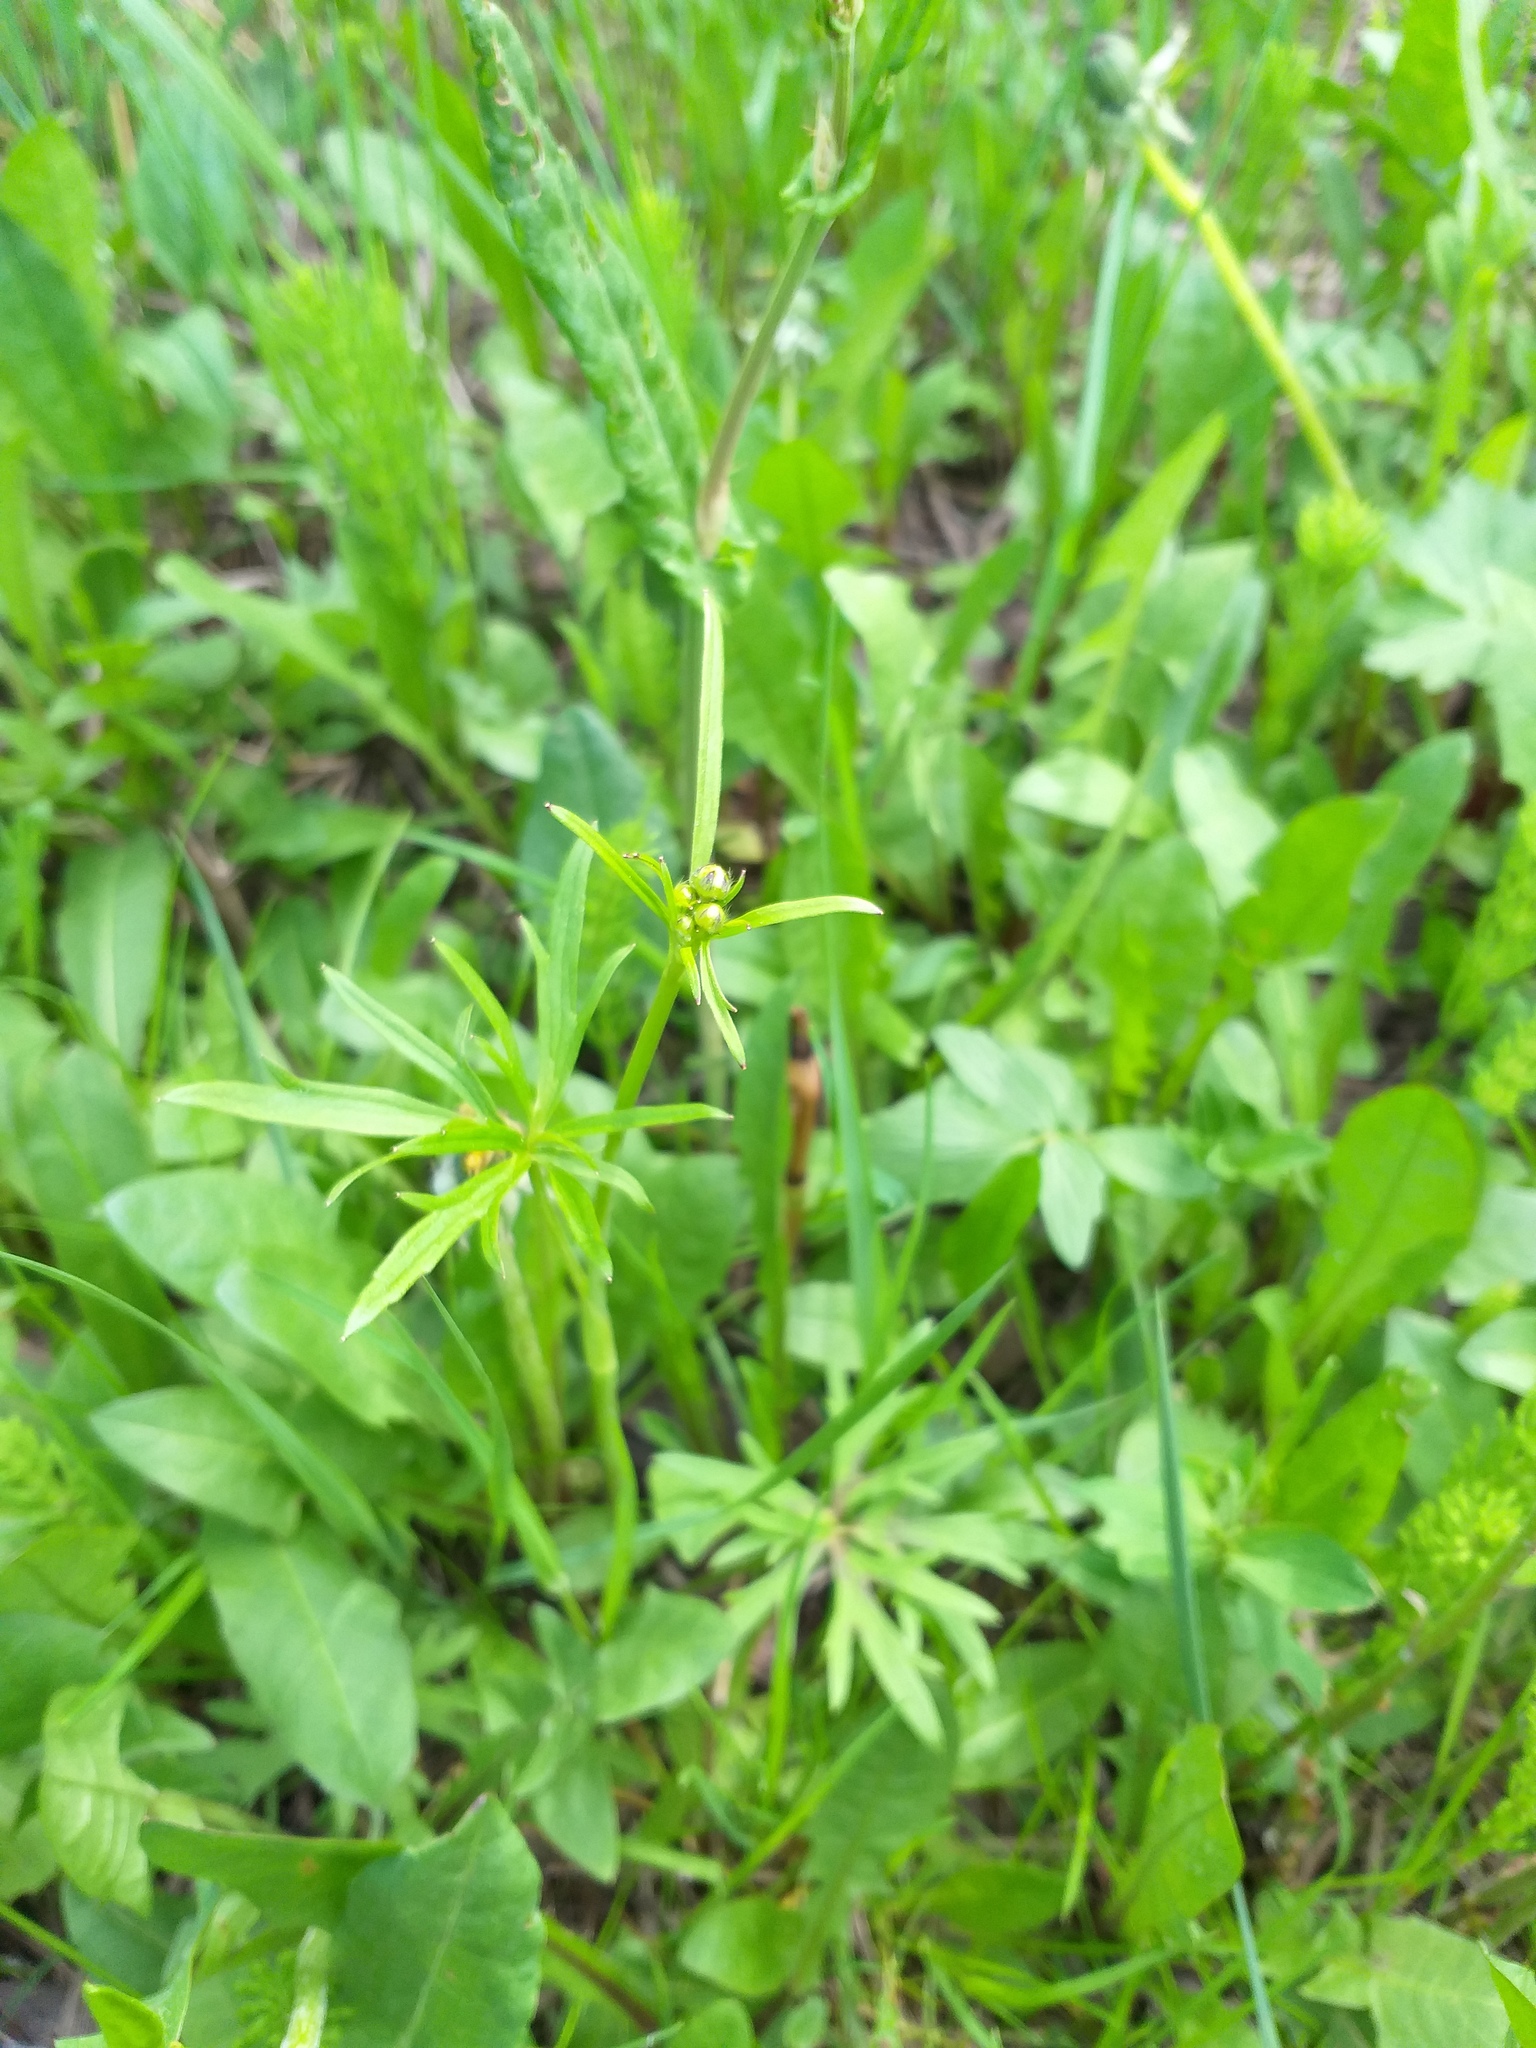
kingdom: Plantae
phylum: Tracheophyta
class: Magnoliopsida
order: Ranunculales
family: Ranunculaceae
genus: Ranunculus
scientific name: Ranunculus acris
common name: Meadow buttercup
